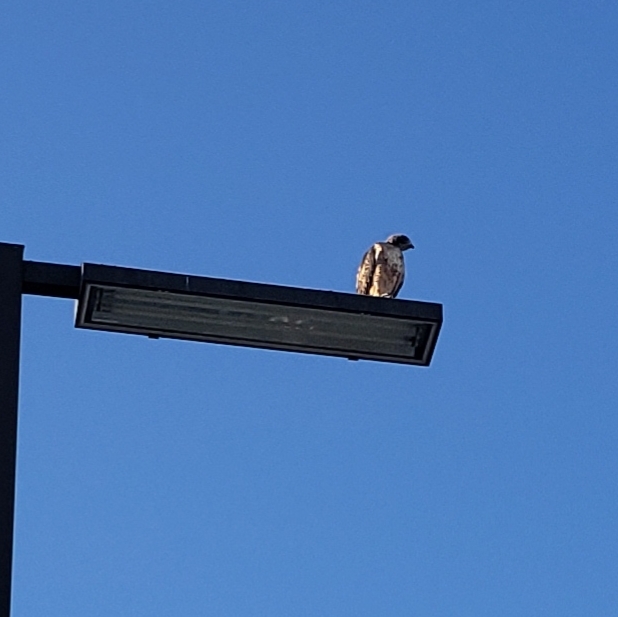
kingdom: Animalia
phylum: Chordata
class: Aves
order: Accipitriformes
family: Accipitridae
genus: Buteo
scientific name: Buteo jamaicensis
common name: Red-tailed hawk
